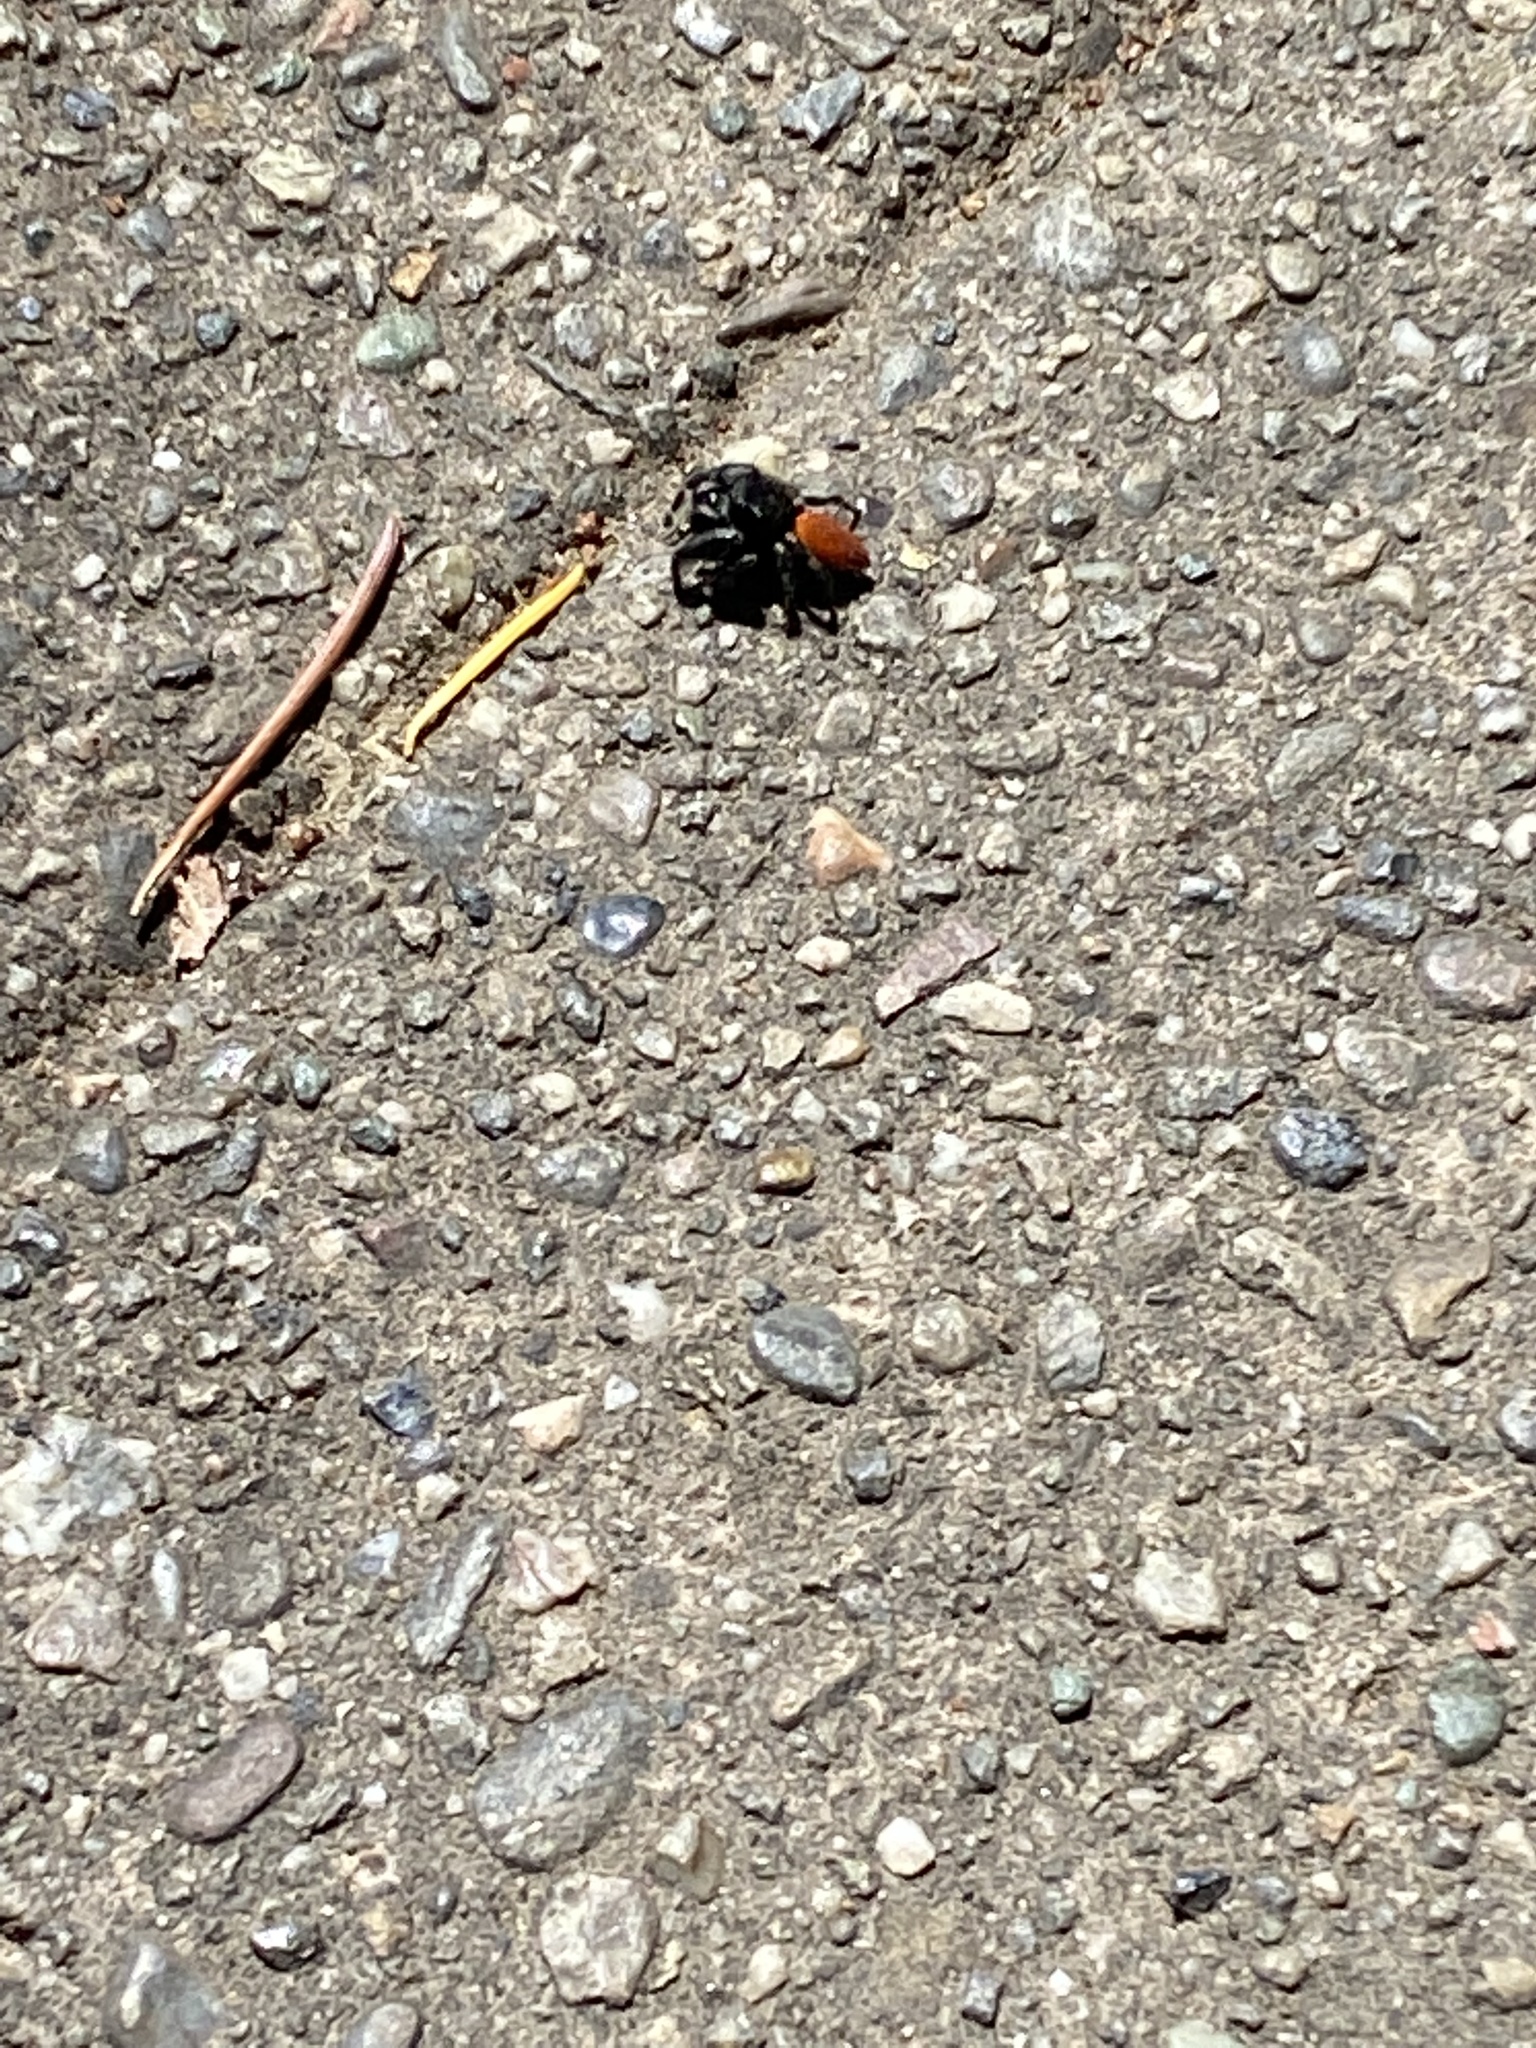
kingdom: Animalia
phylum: Arthropoda
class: Arachnida
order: Araneae
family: Salticidae
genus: Phidippus
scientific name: Phidippus johnsoni
